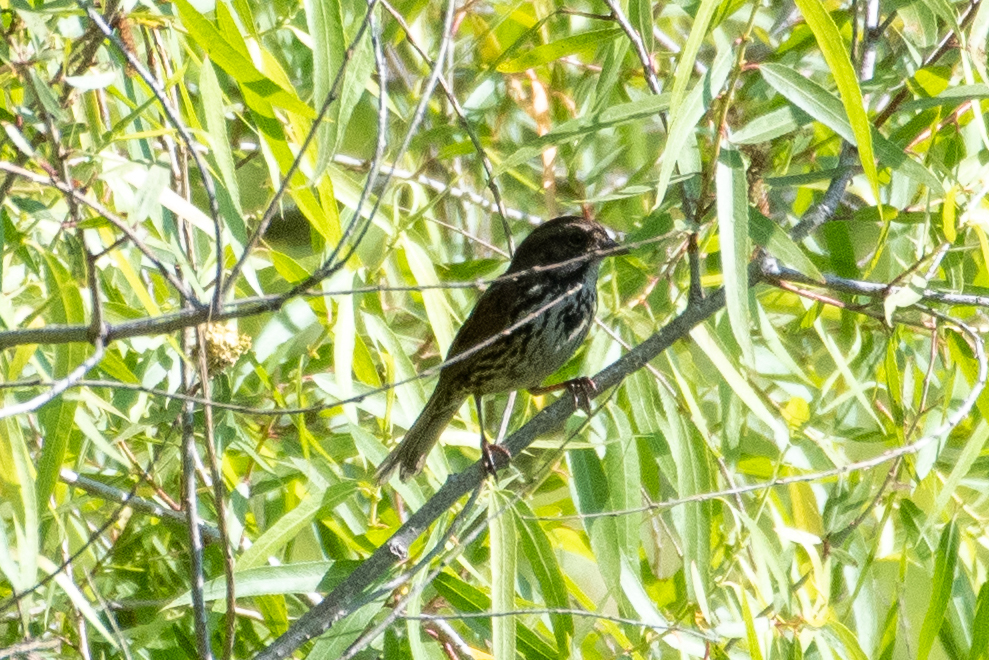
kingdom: Animalia
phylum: Chordata
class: Aves
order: Passeriformes
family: Passerellidae
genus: Melospiza
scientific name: Melospiza melodia
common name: Song sparrow
